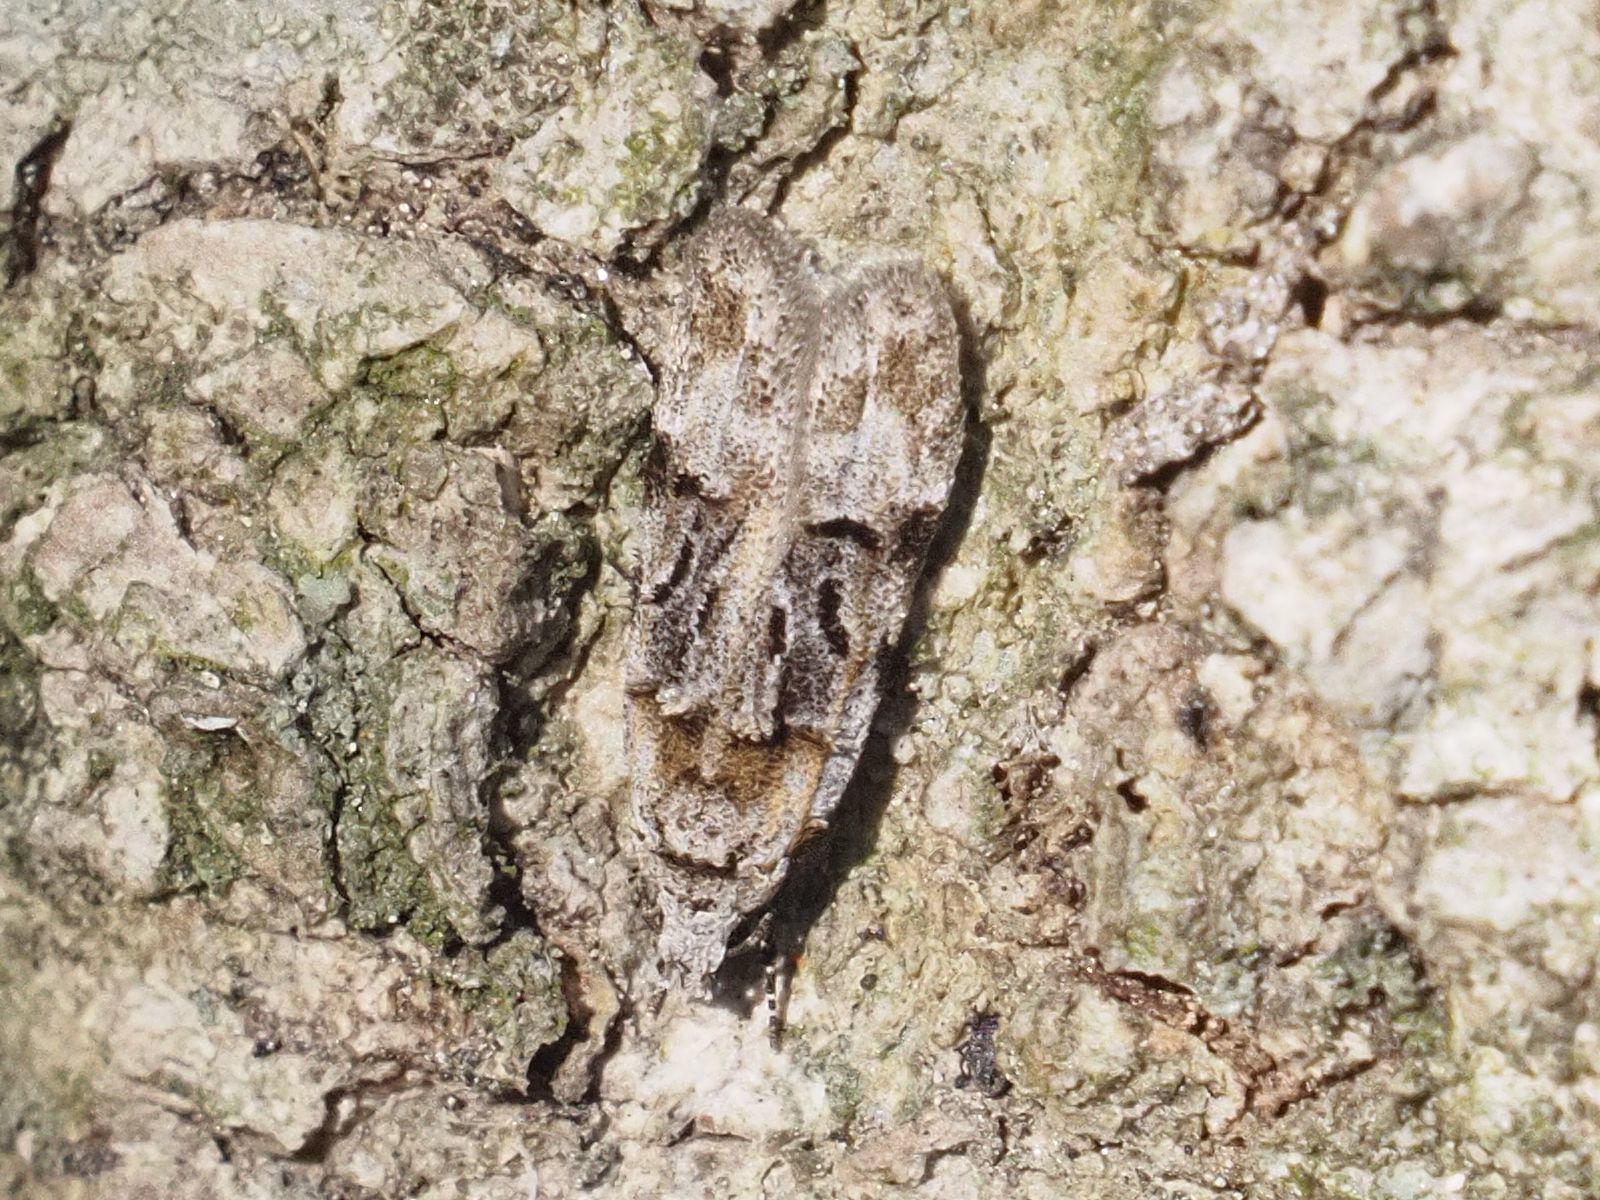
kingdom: Animalia
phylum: Arthropoda
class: Insecta
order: Lepidoptera
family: Gelechiidae
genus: Altenia
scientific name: Altenia scriptella
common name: Horse-shoe groundling
